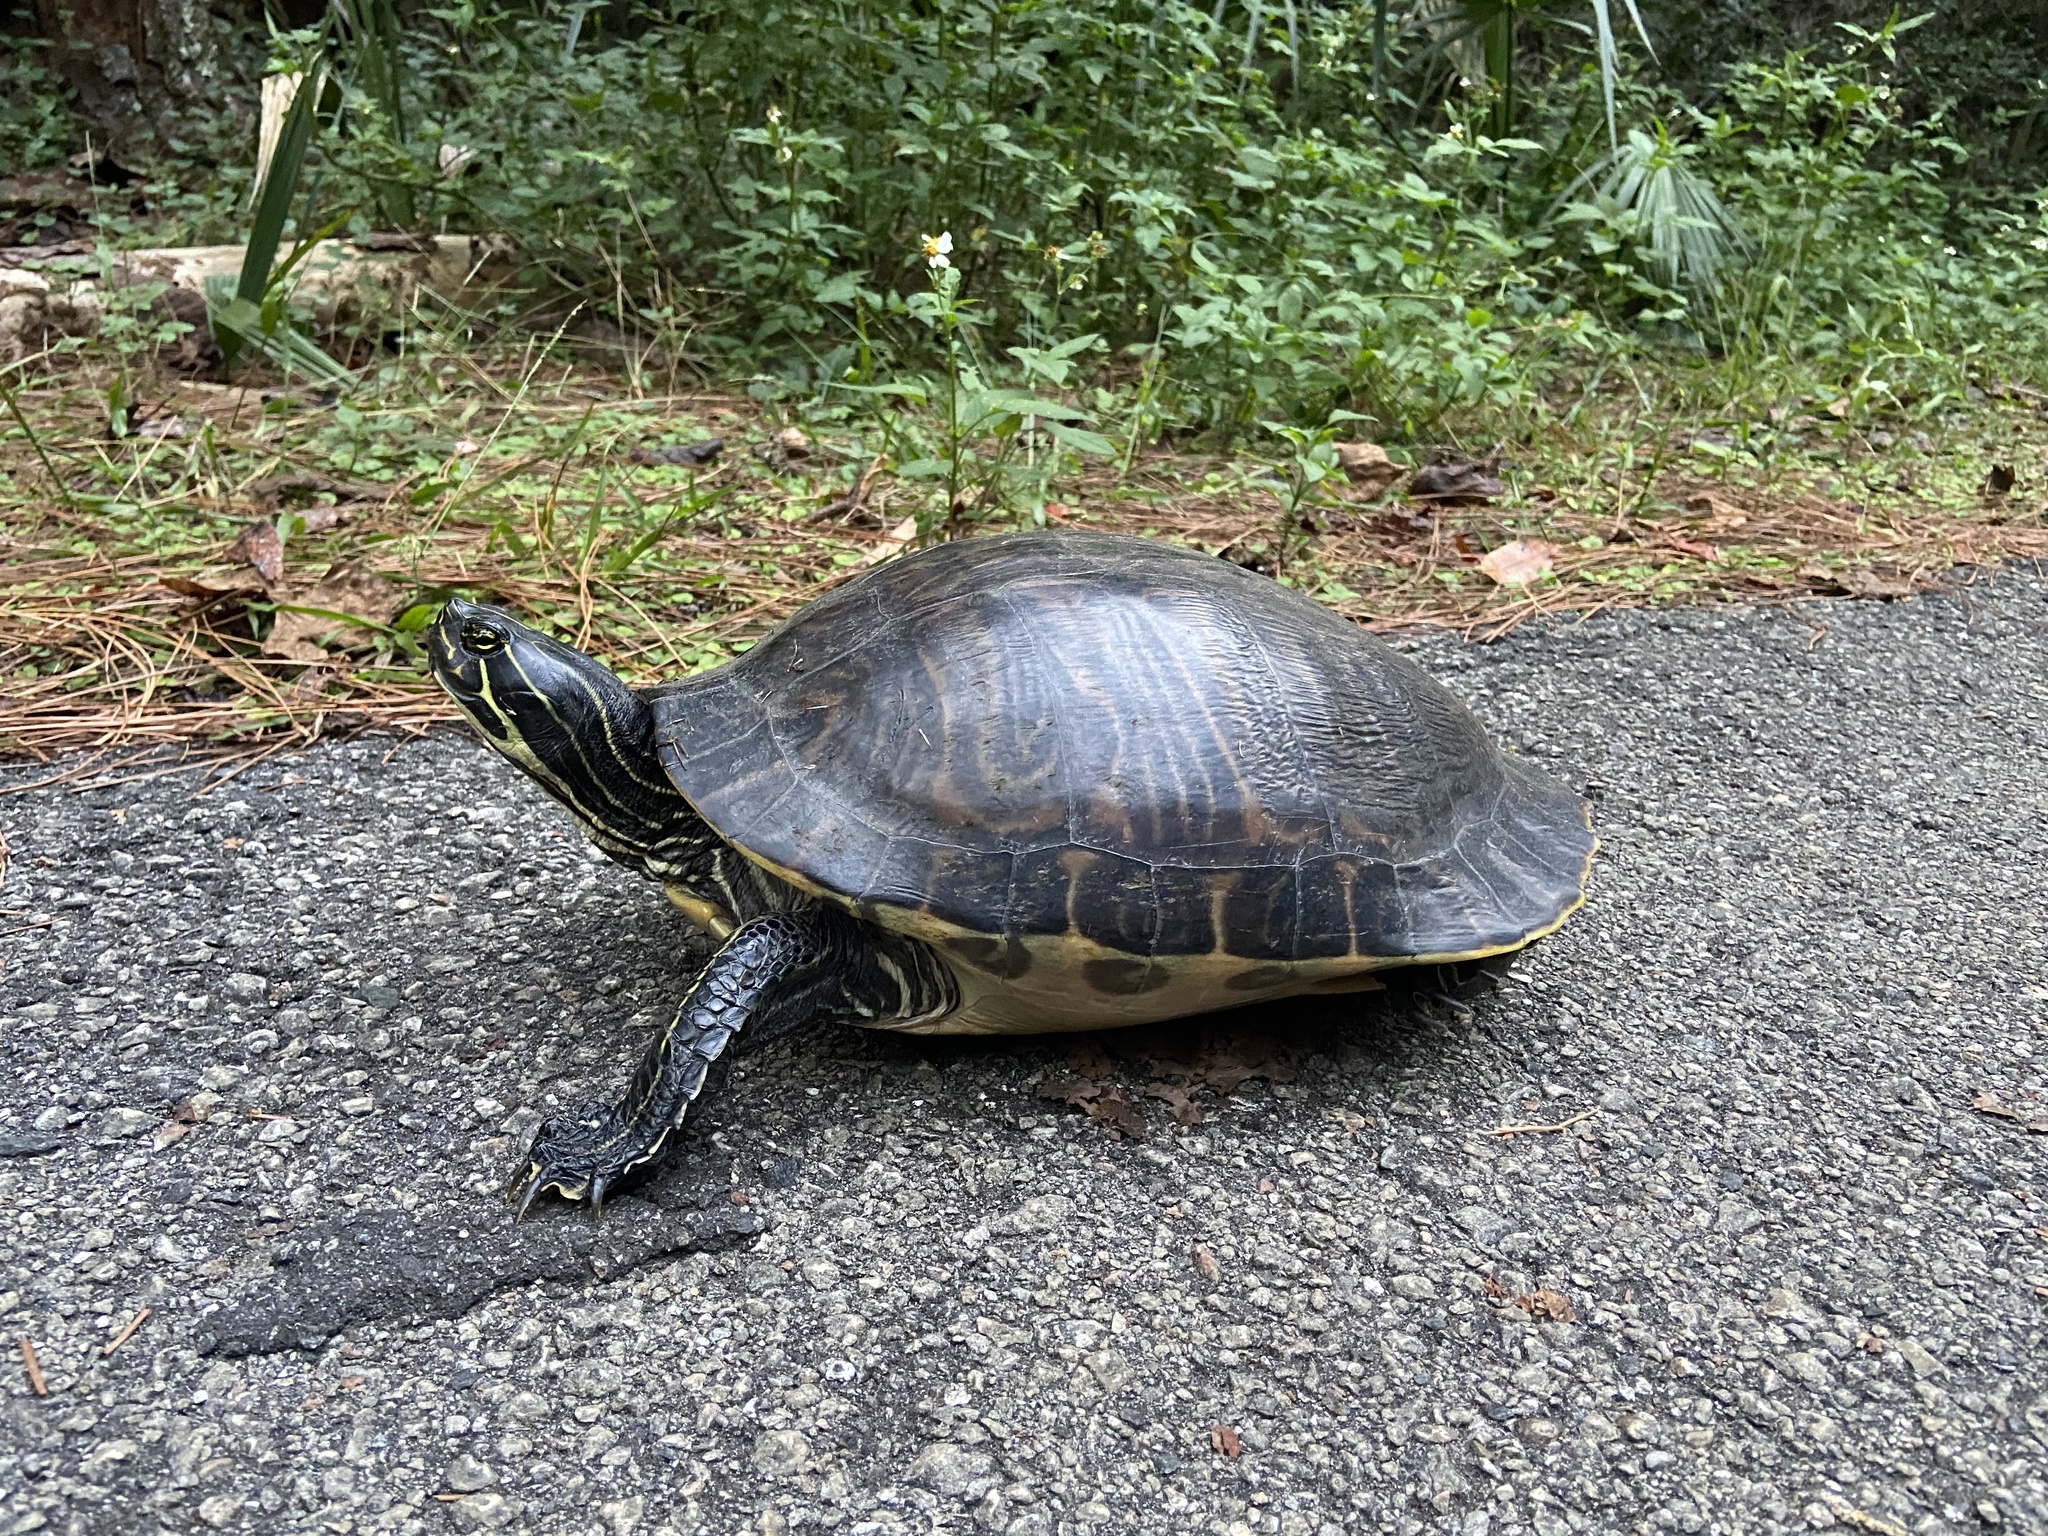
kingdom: Animalia
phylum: Chordata
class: Testudines
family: Emydidae
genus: Pseudemys
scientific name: Pseudemys peninsularis
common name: Peninsula cooter
